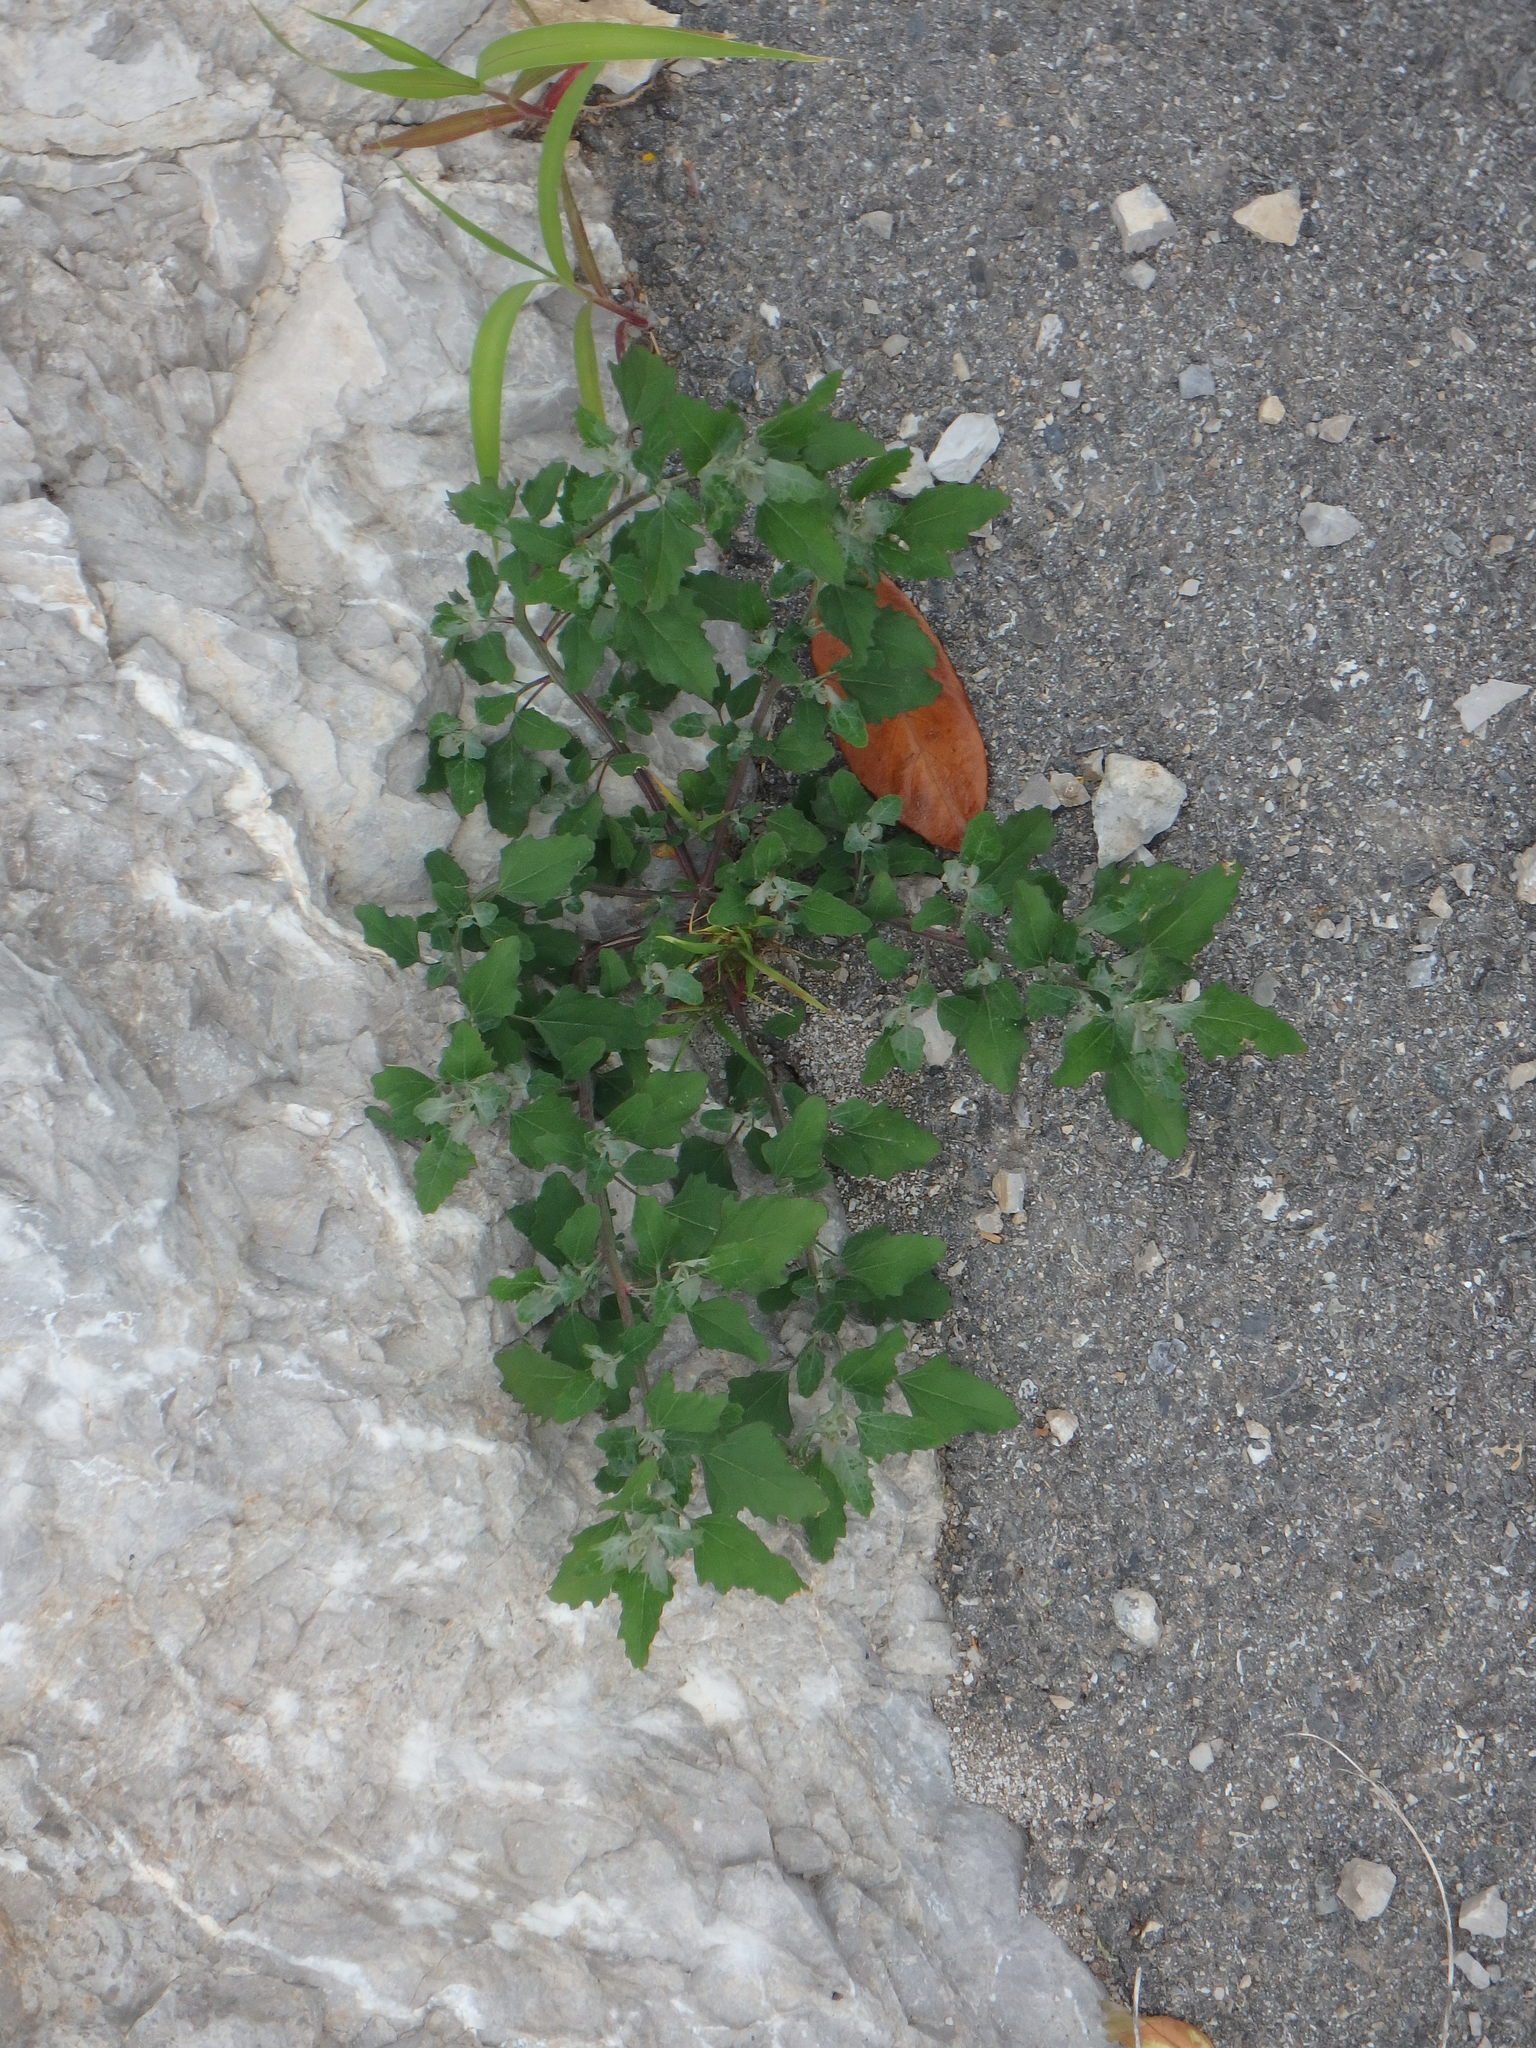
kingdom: Plantae
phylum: Tracheophyta
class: Magnoliopsida
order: Caryophyllales
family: Amaranthaceae
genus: Chenopodium
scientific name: Chenopodium album
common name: Fat-hen
